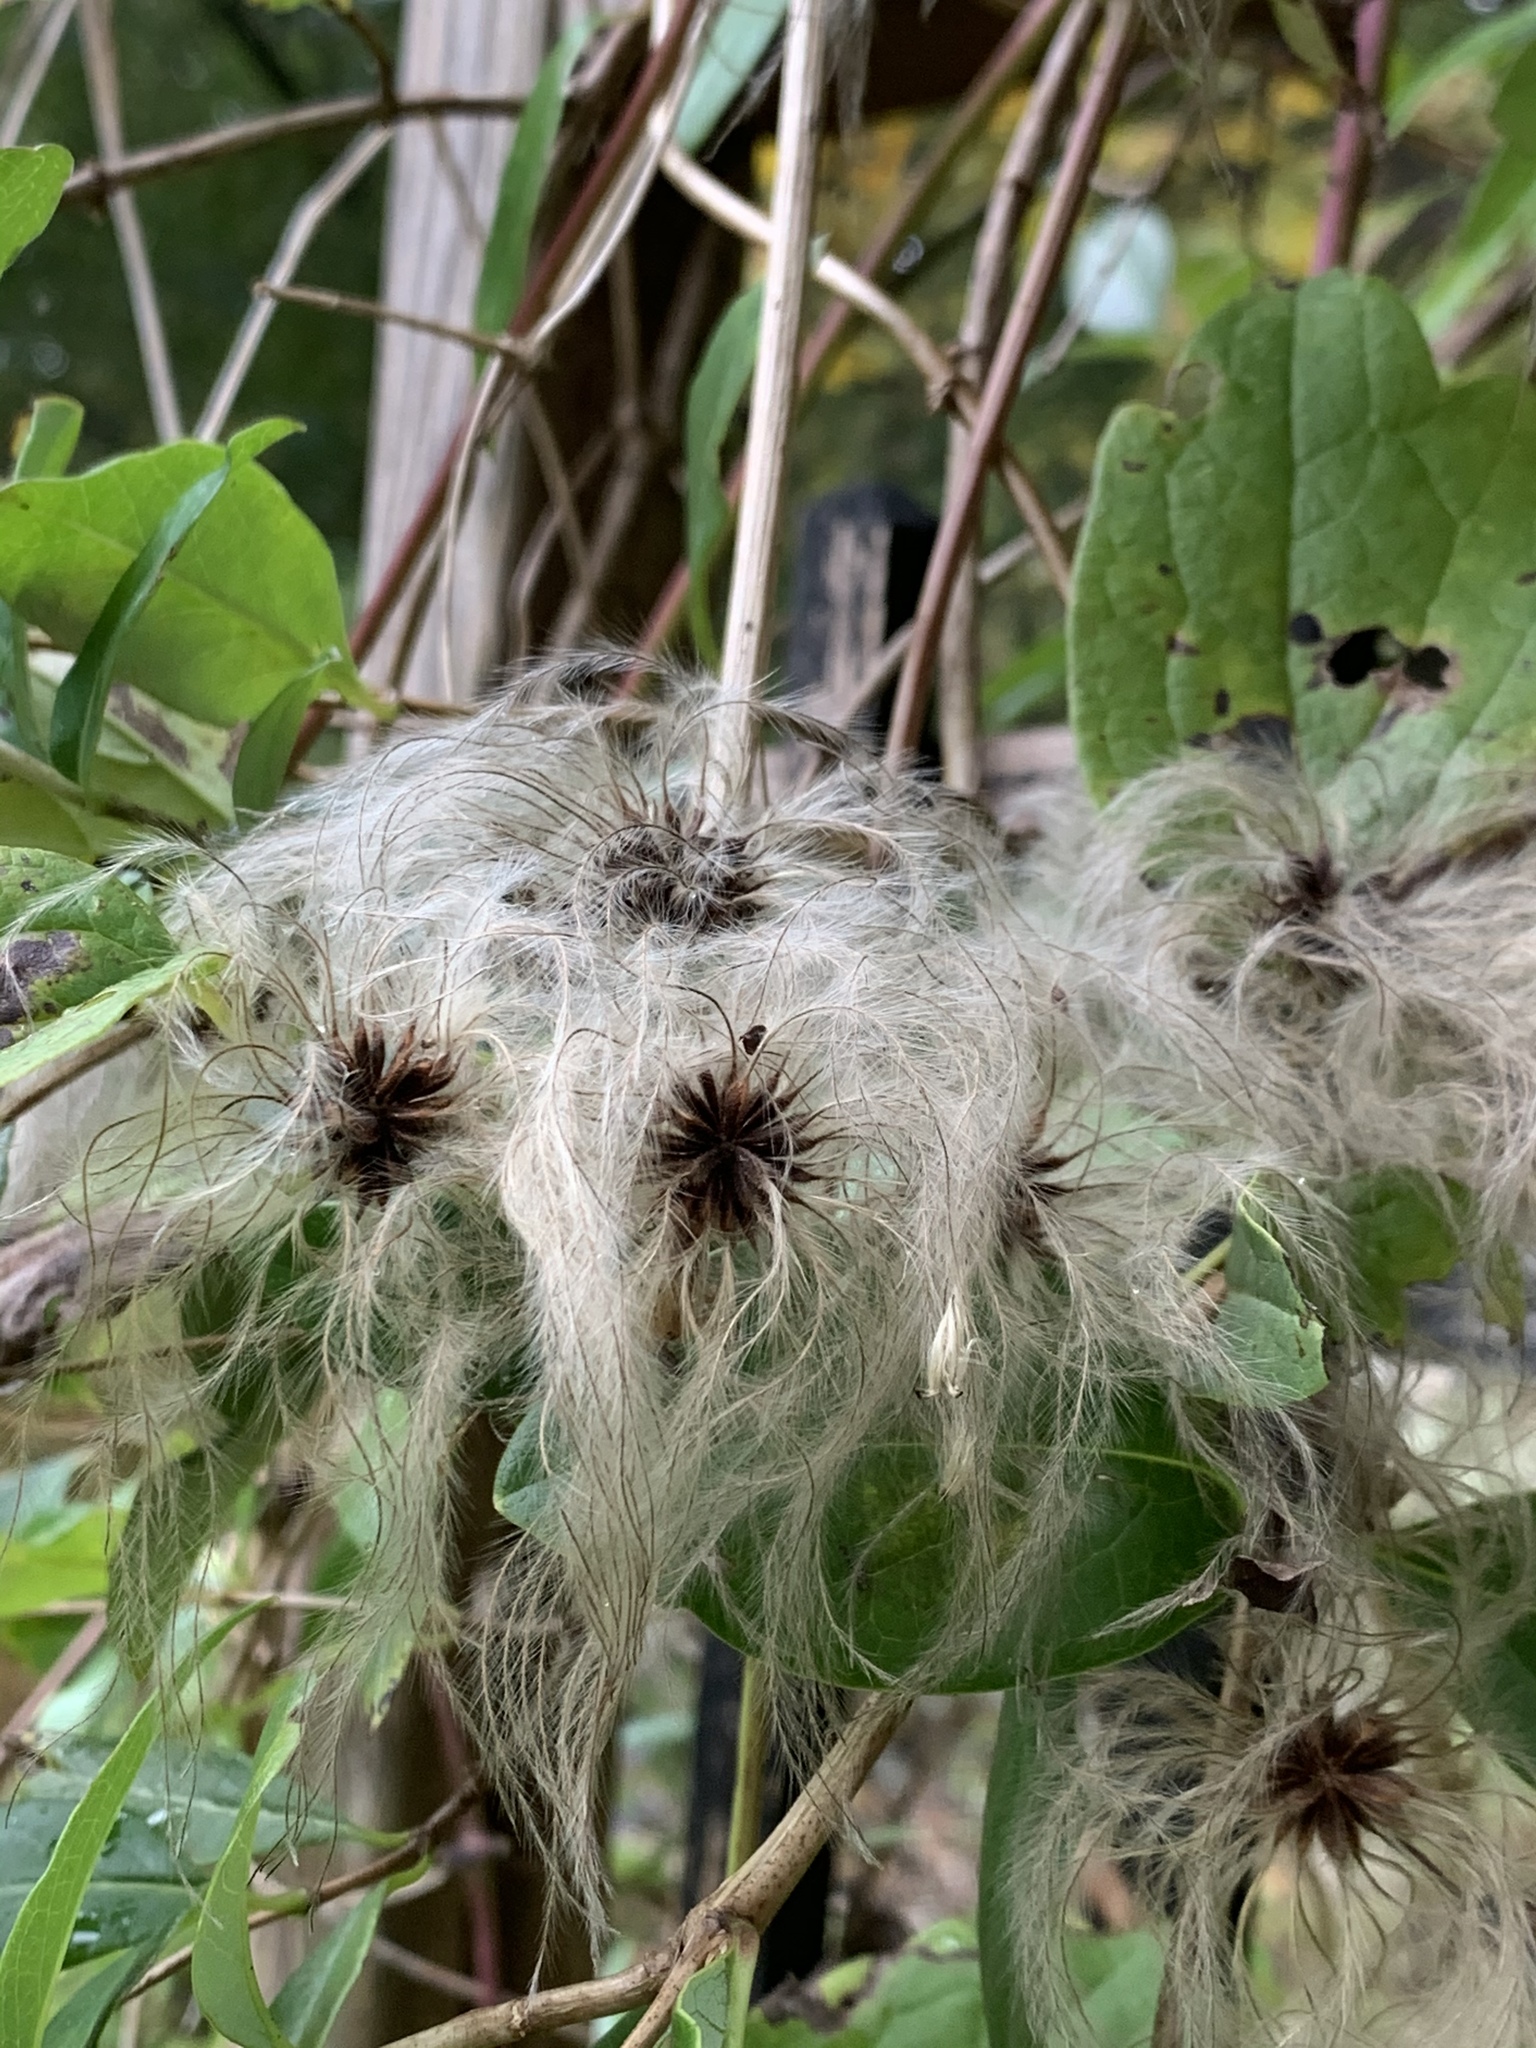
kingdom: Plantae
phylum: Tracheophyta
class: Magnoliopsida
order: Ranunculales
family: Ranunculaceae
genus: Clematis
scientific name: Clematis virginiana
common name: Virgin's-bower
